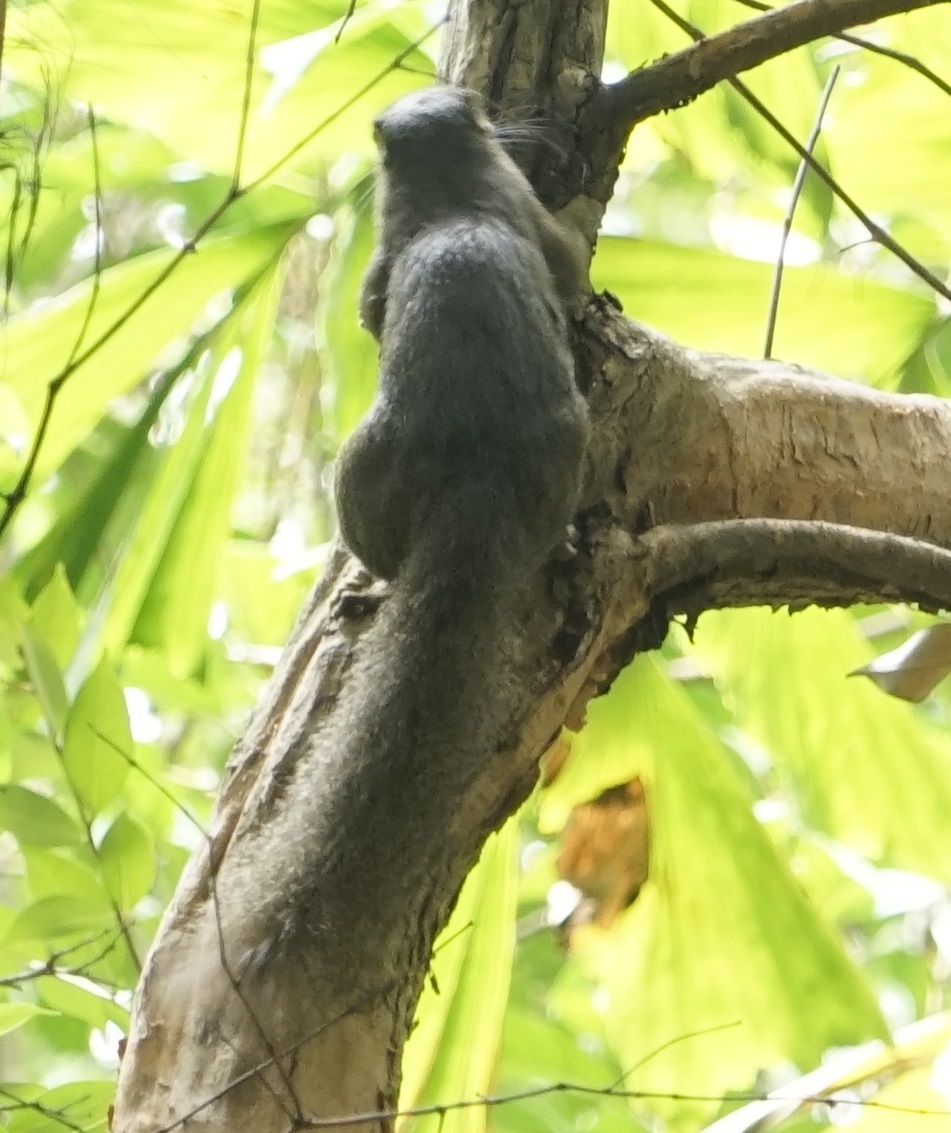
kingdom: Animalia
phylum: Chordata
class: Mammalia
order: Rodentia
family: Sciuridae
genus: Callosciurus
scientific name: Callosciurus notatus
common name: Plantain squirrel
